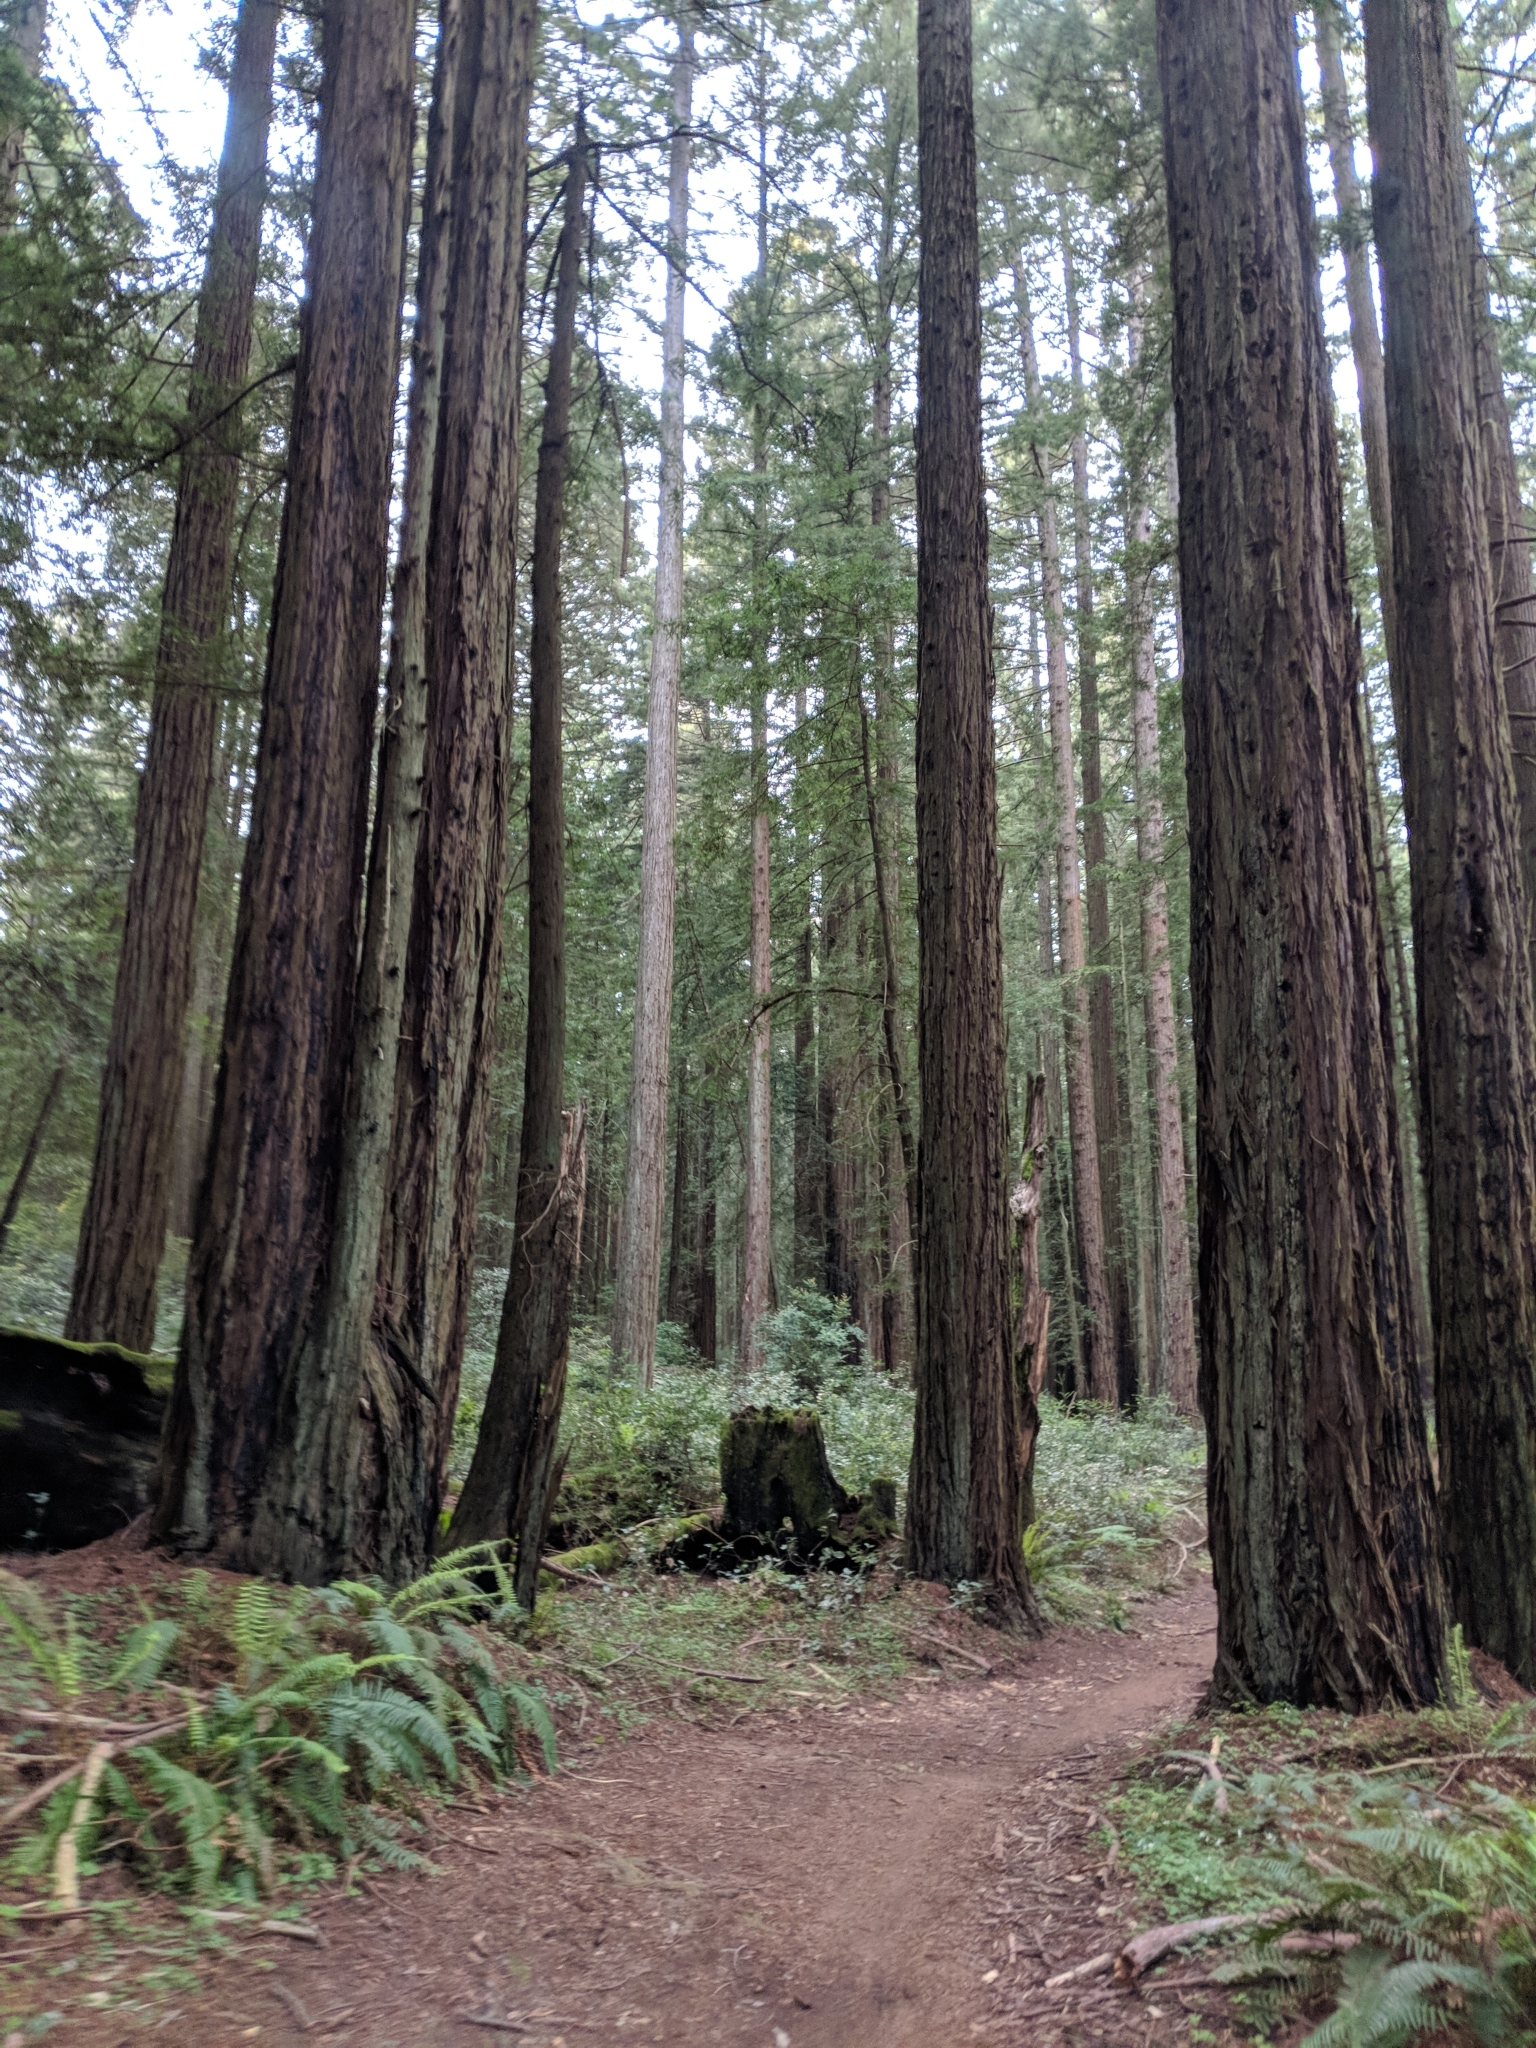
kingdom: Plantae
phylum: Tracheophyta
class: Pinopsida
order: Pinales
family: Cupressaceae
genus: Sequoia
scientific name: Sequoia sempervirens
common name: Coast redwood
